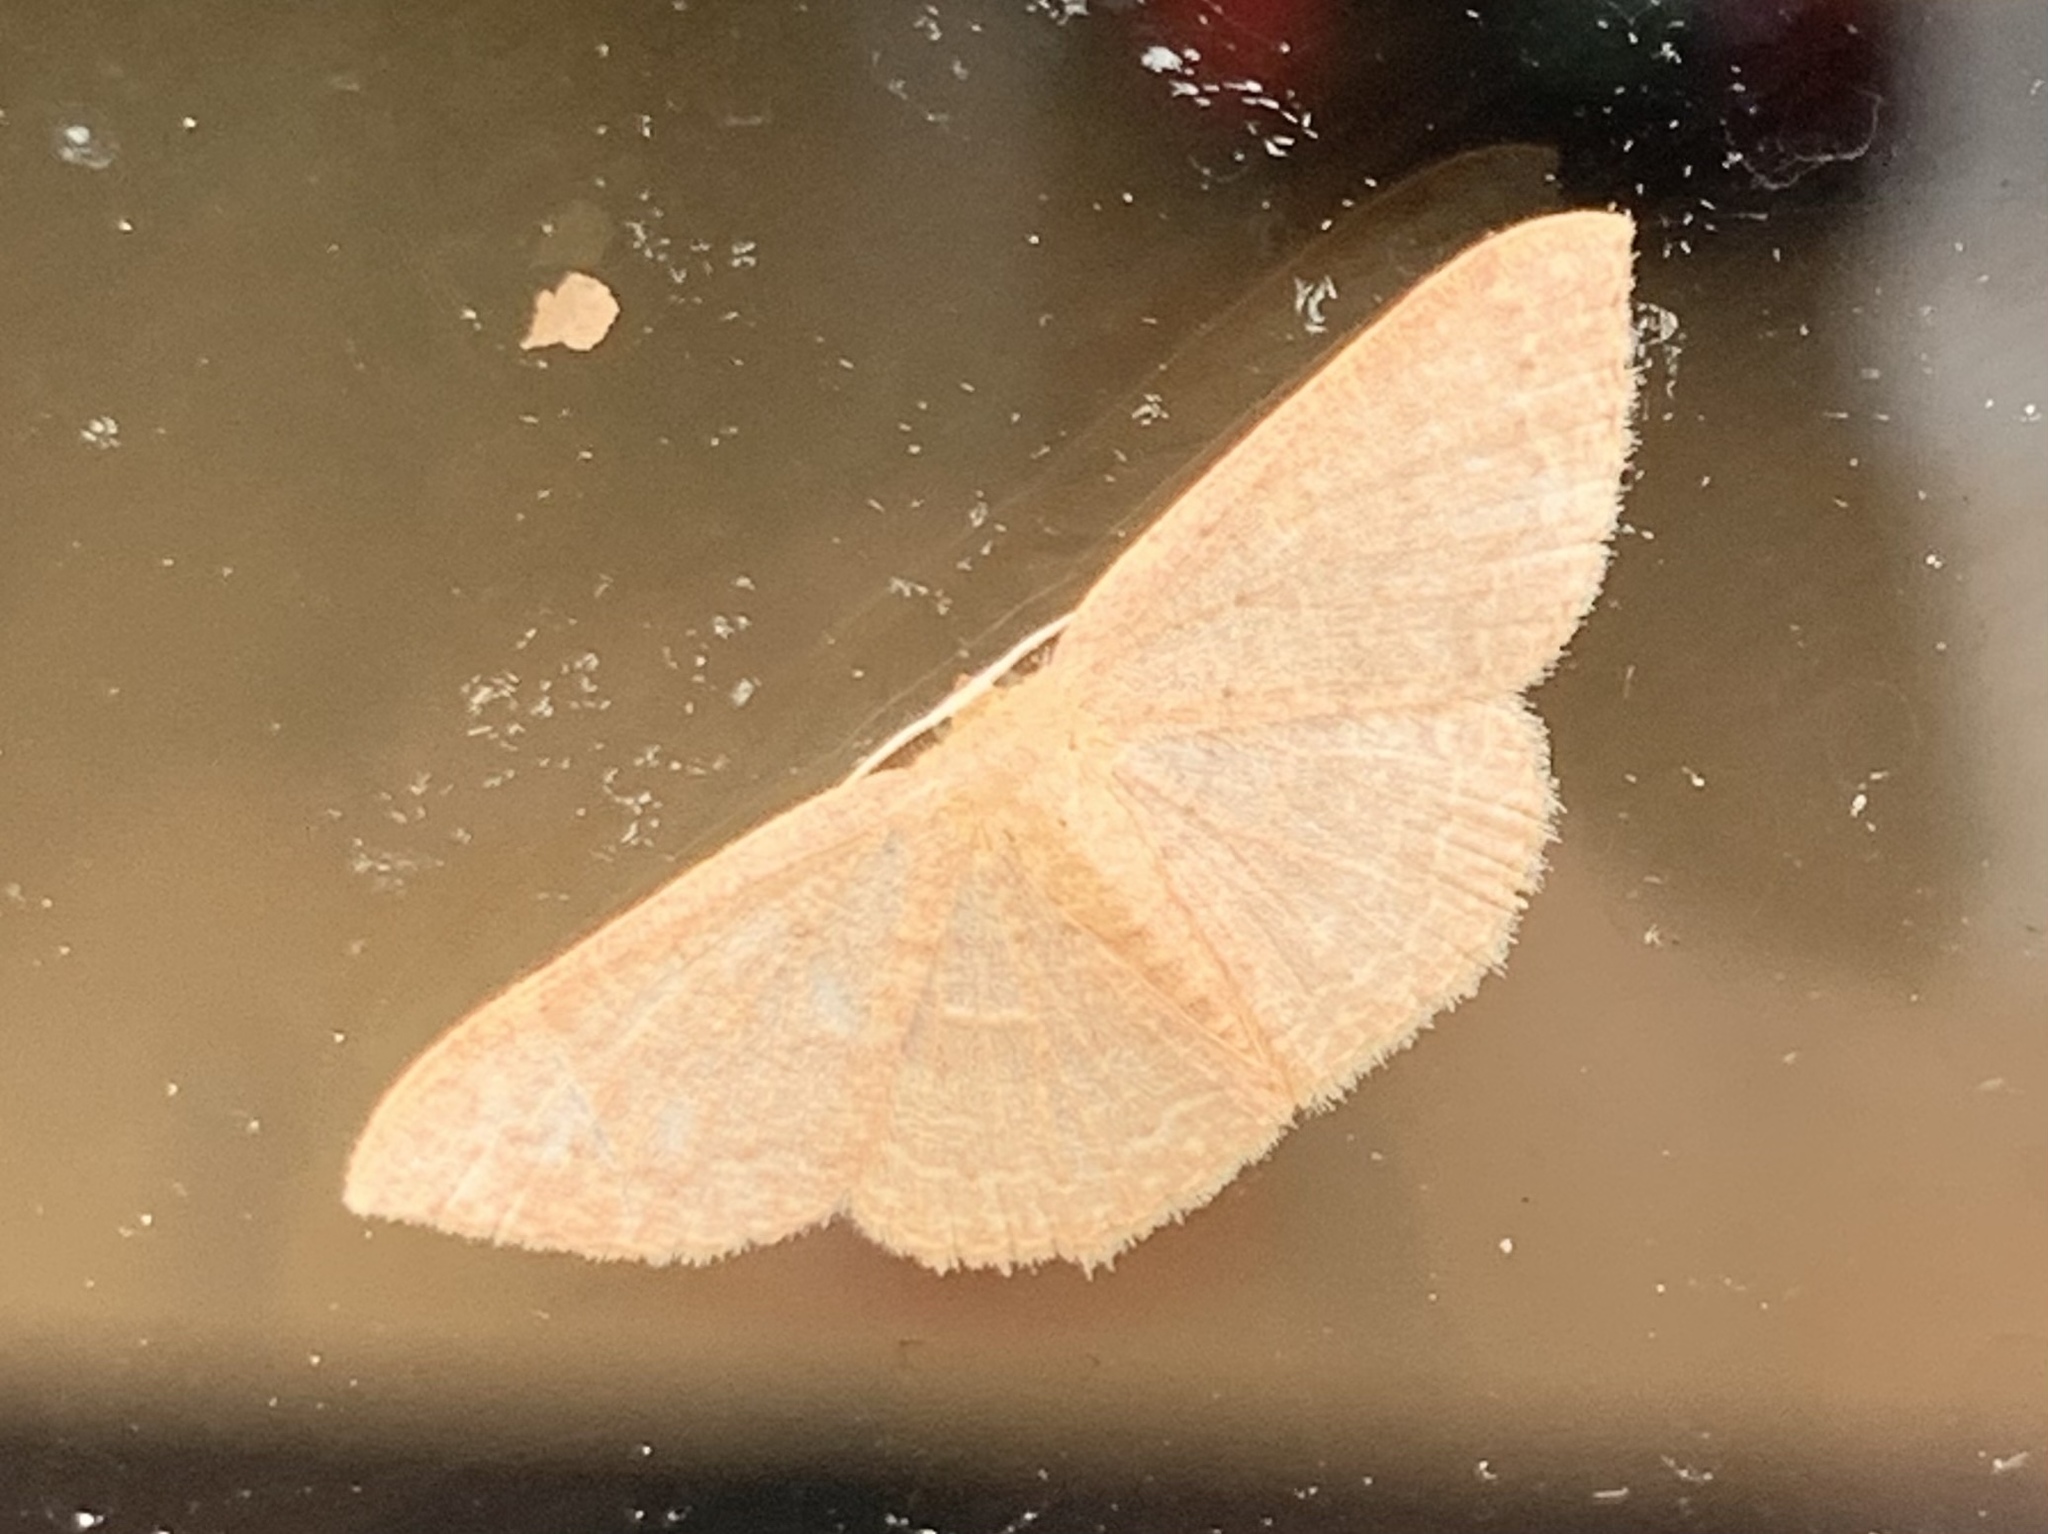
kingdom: Animalia
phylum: Arthropoda
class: Insecta
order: Lepidoptera
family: Geometridae
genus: Pleuroprucha
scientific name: Pleuroprucha insulsaria
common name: Common tan wave
